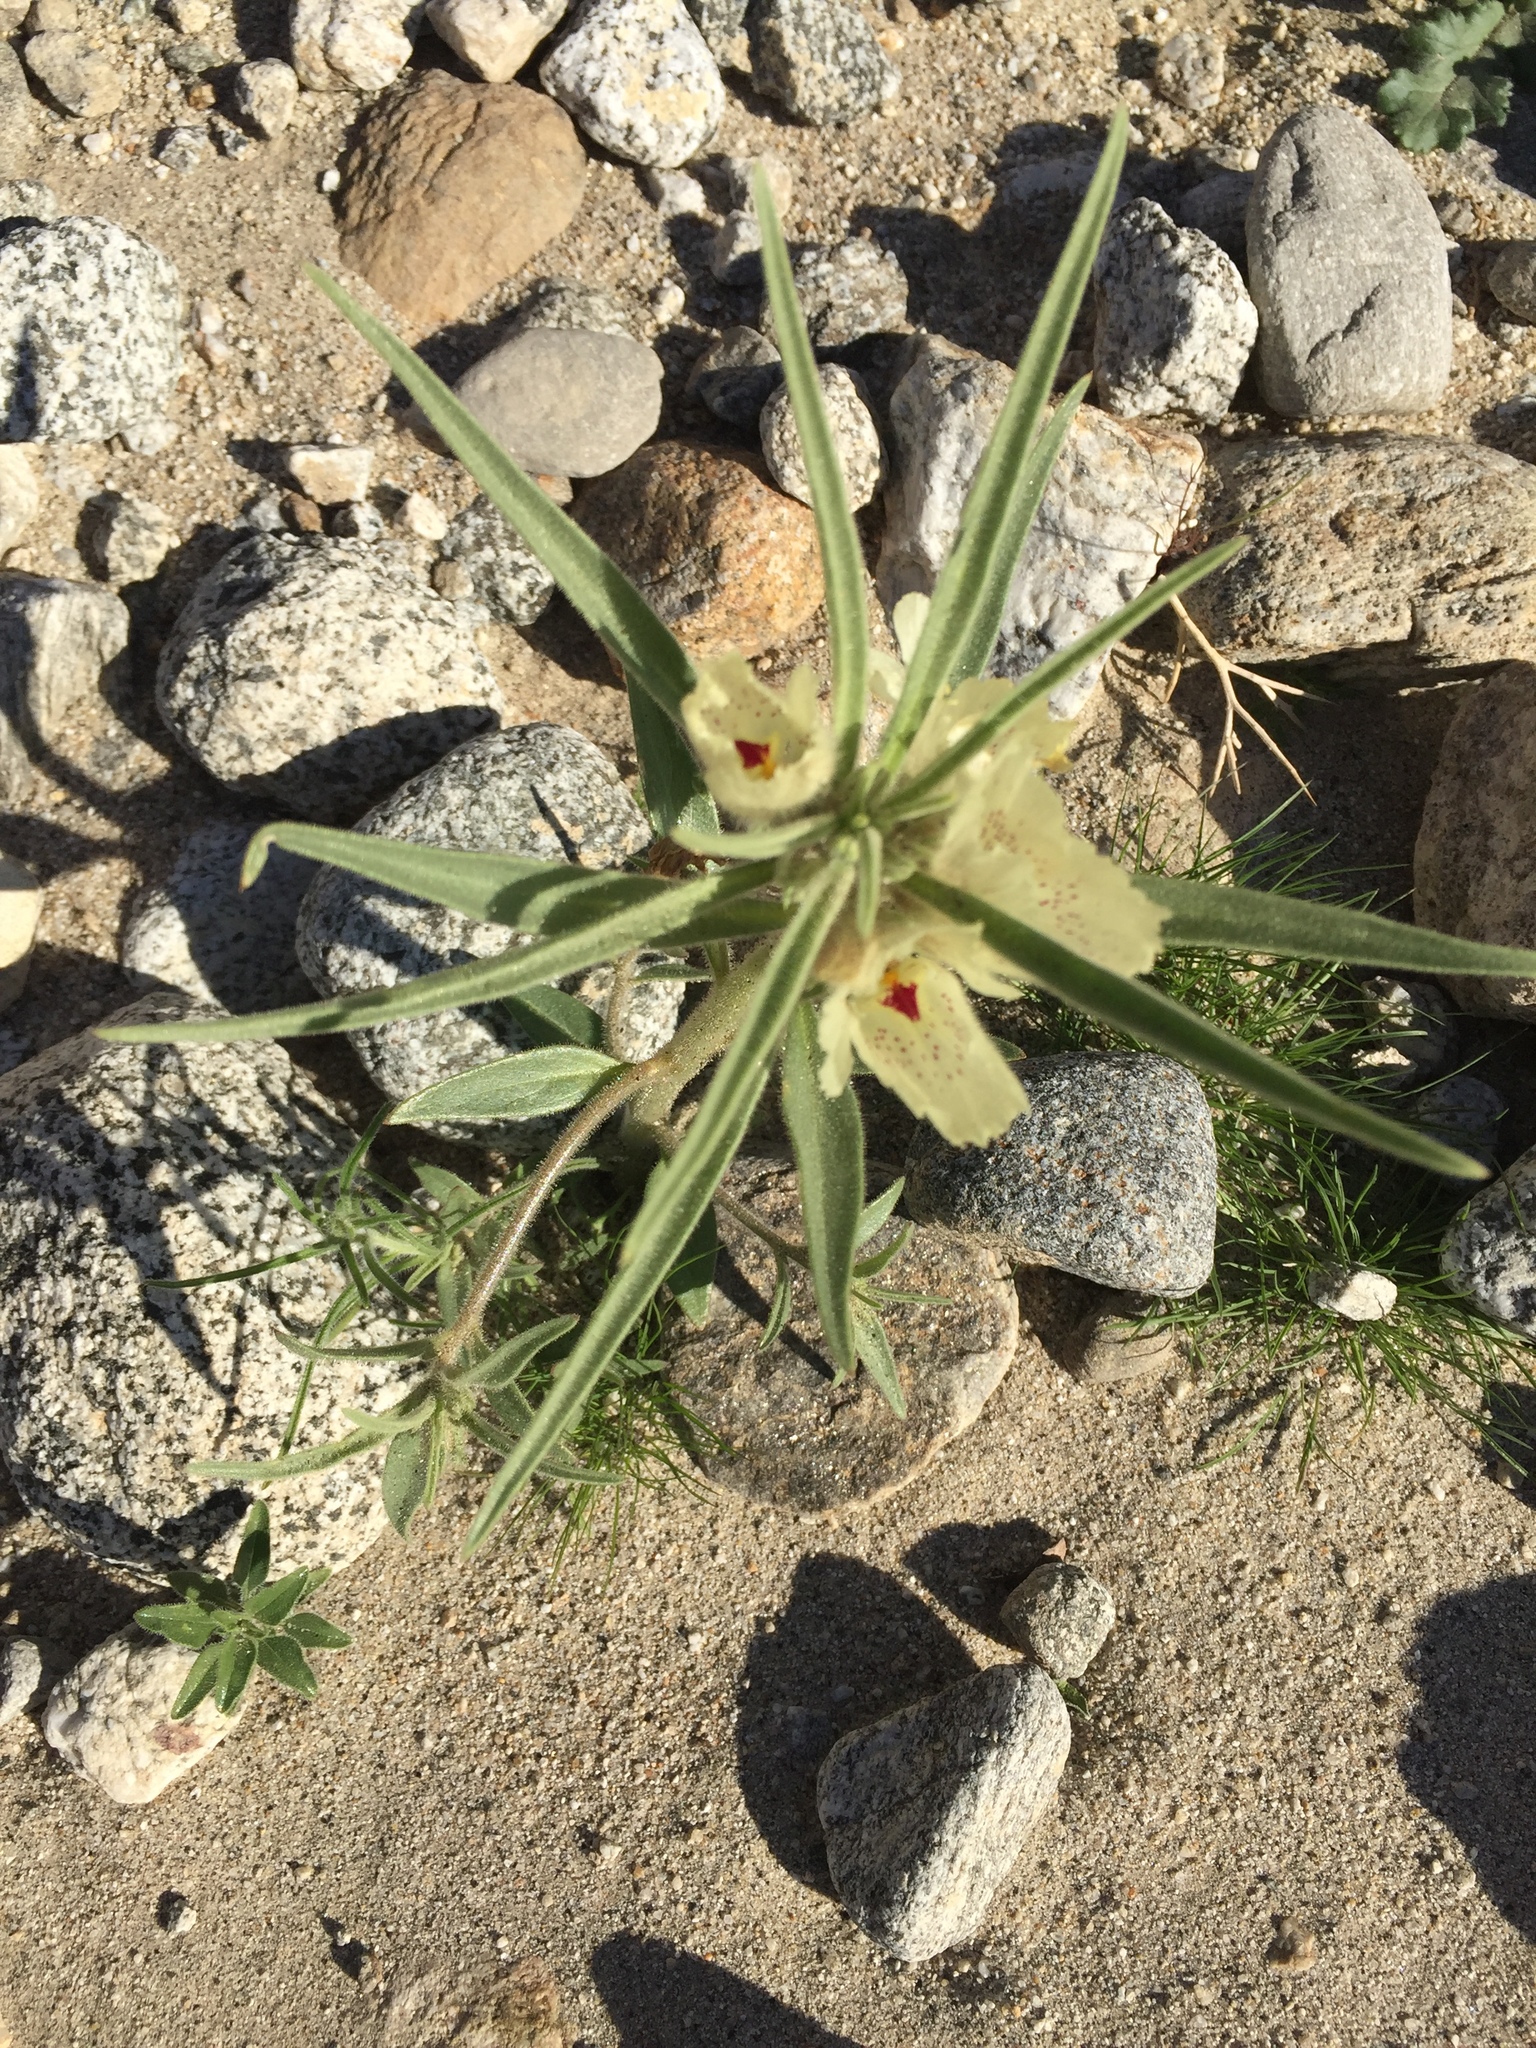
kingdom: Plantae
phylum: Tracheophyta
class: Magnoliopsida
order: Lamiales
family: Plantaginaceae
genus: Mohavea
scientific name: Mohavea confertiflora
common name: Ghost flower
